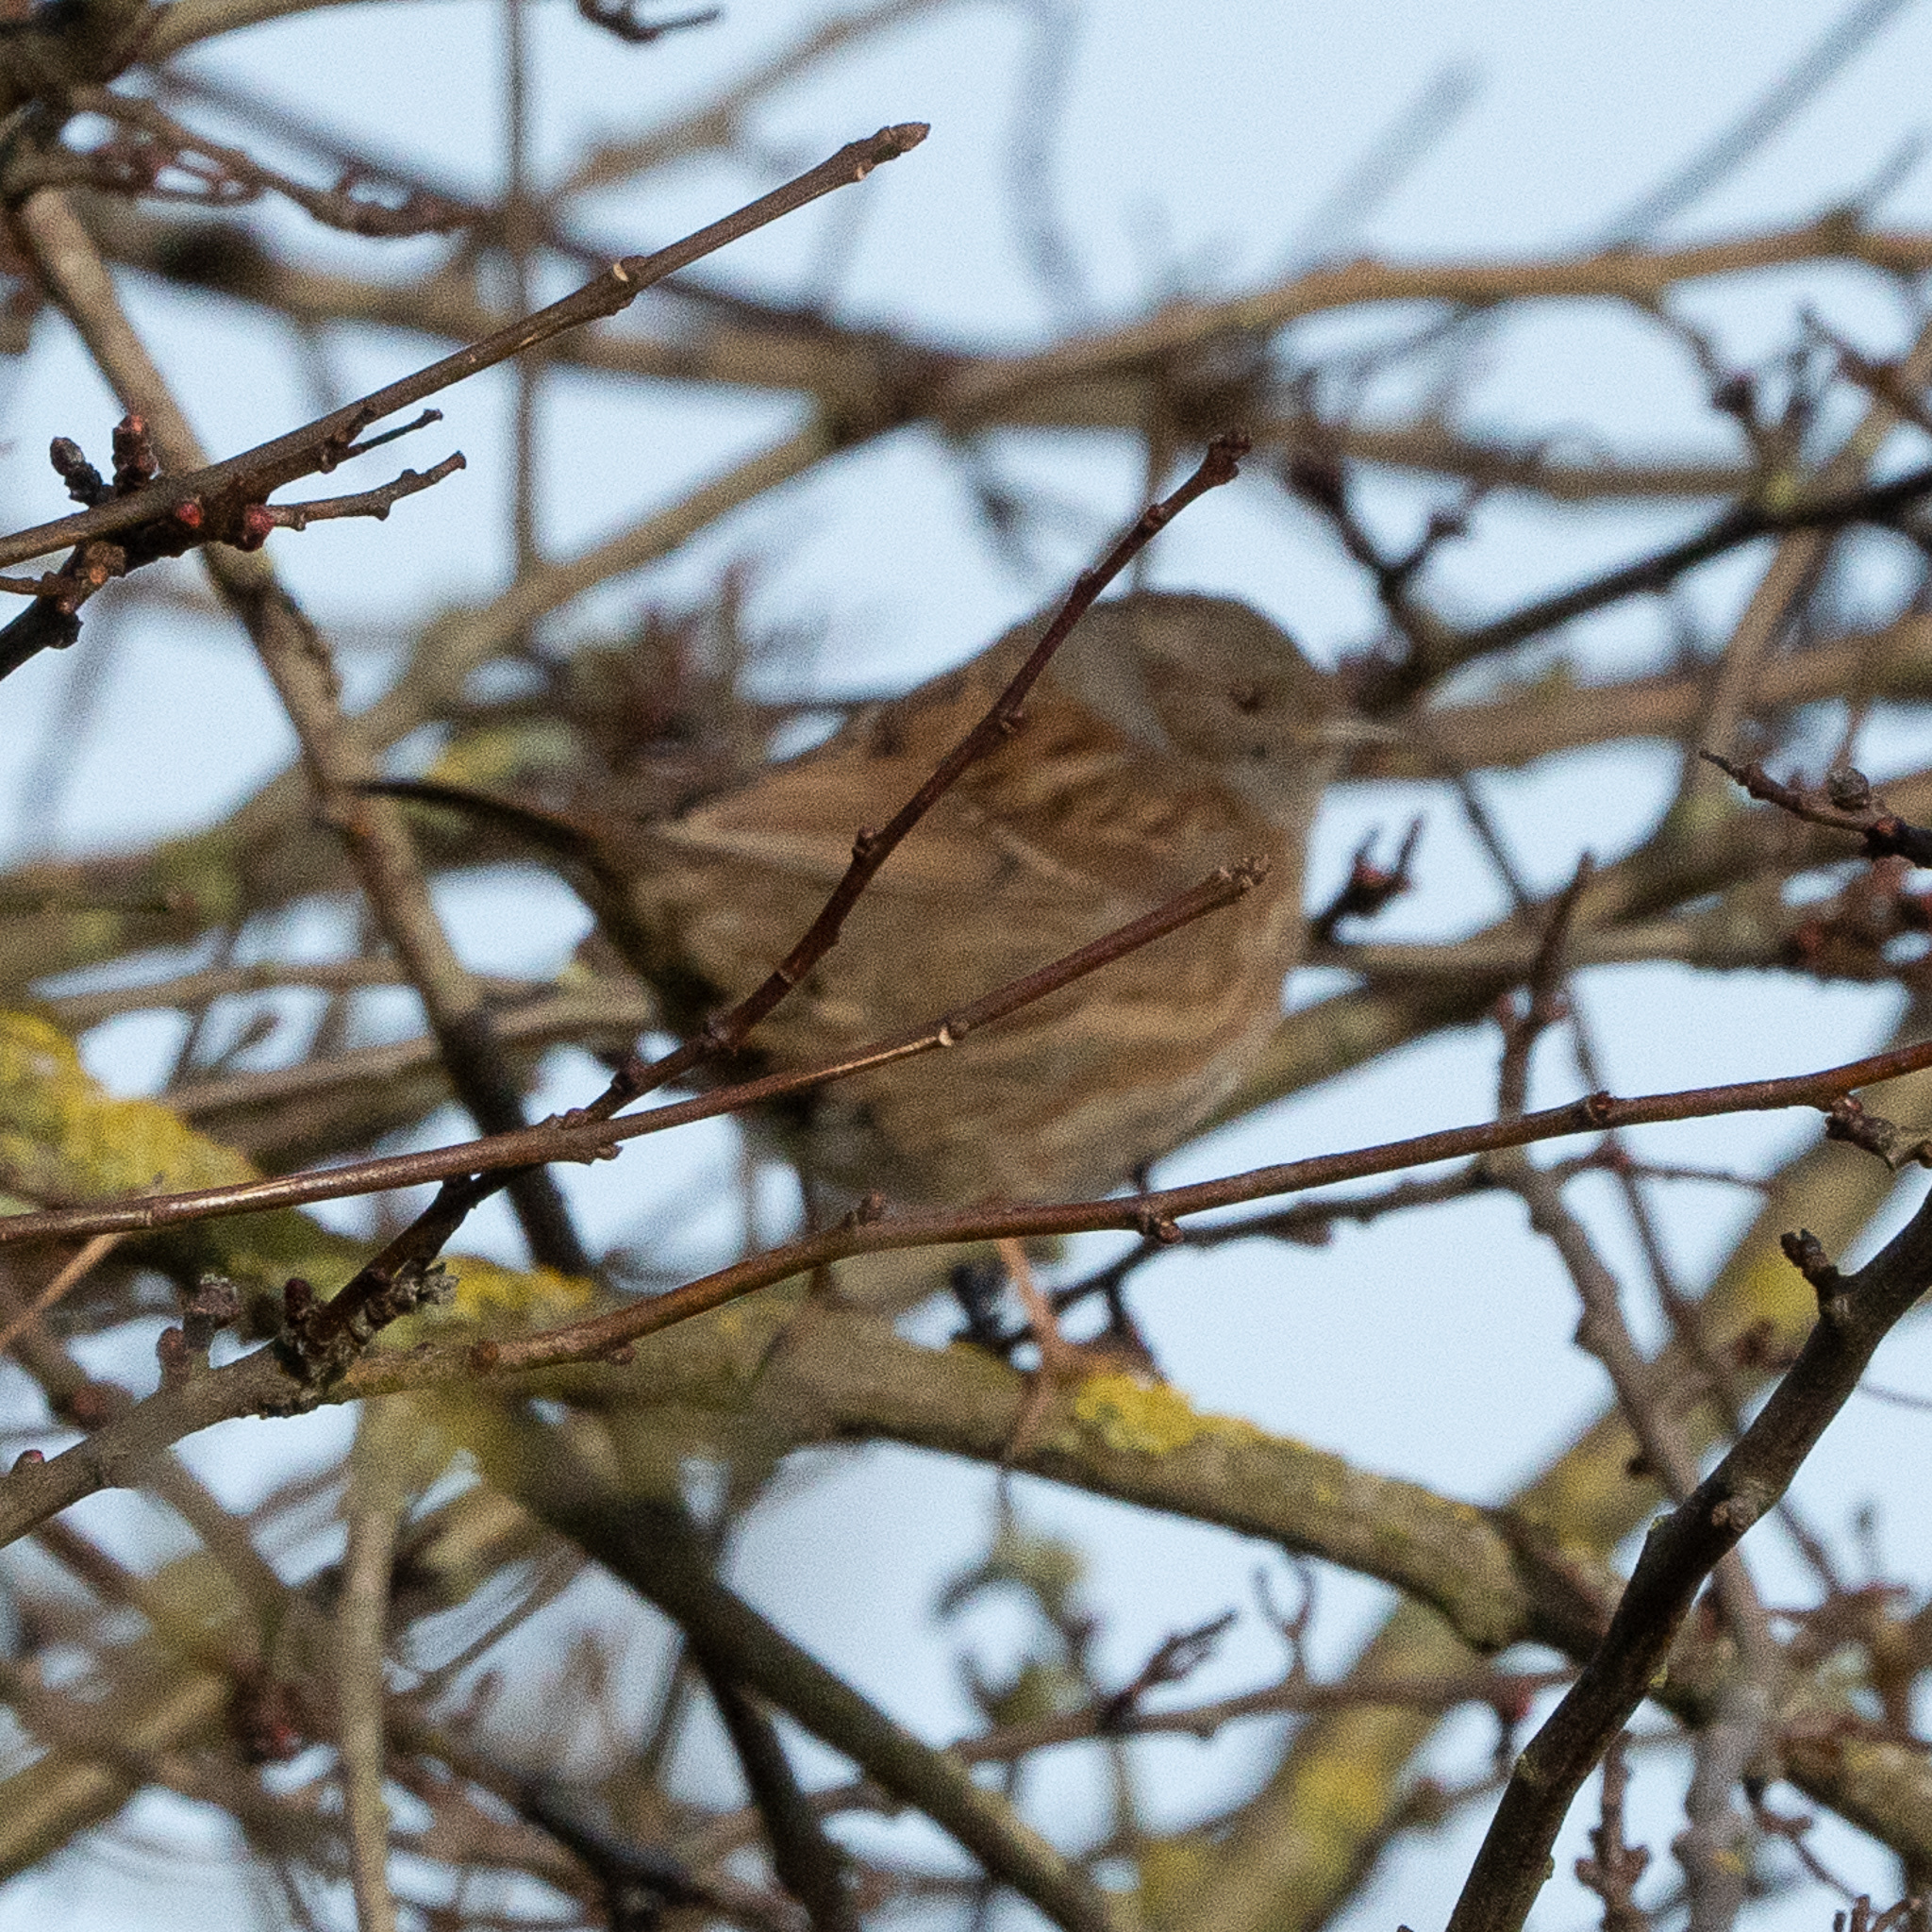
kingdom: Animalia
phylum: Chordata
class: Aves
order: Passeriformes
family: Prunellidae
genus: Prunella
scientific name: Prunella modularis
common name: Dunnock
